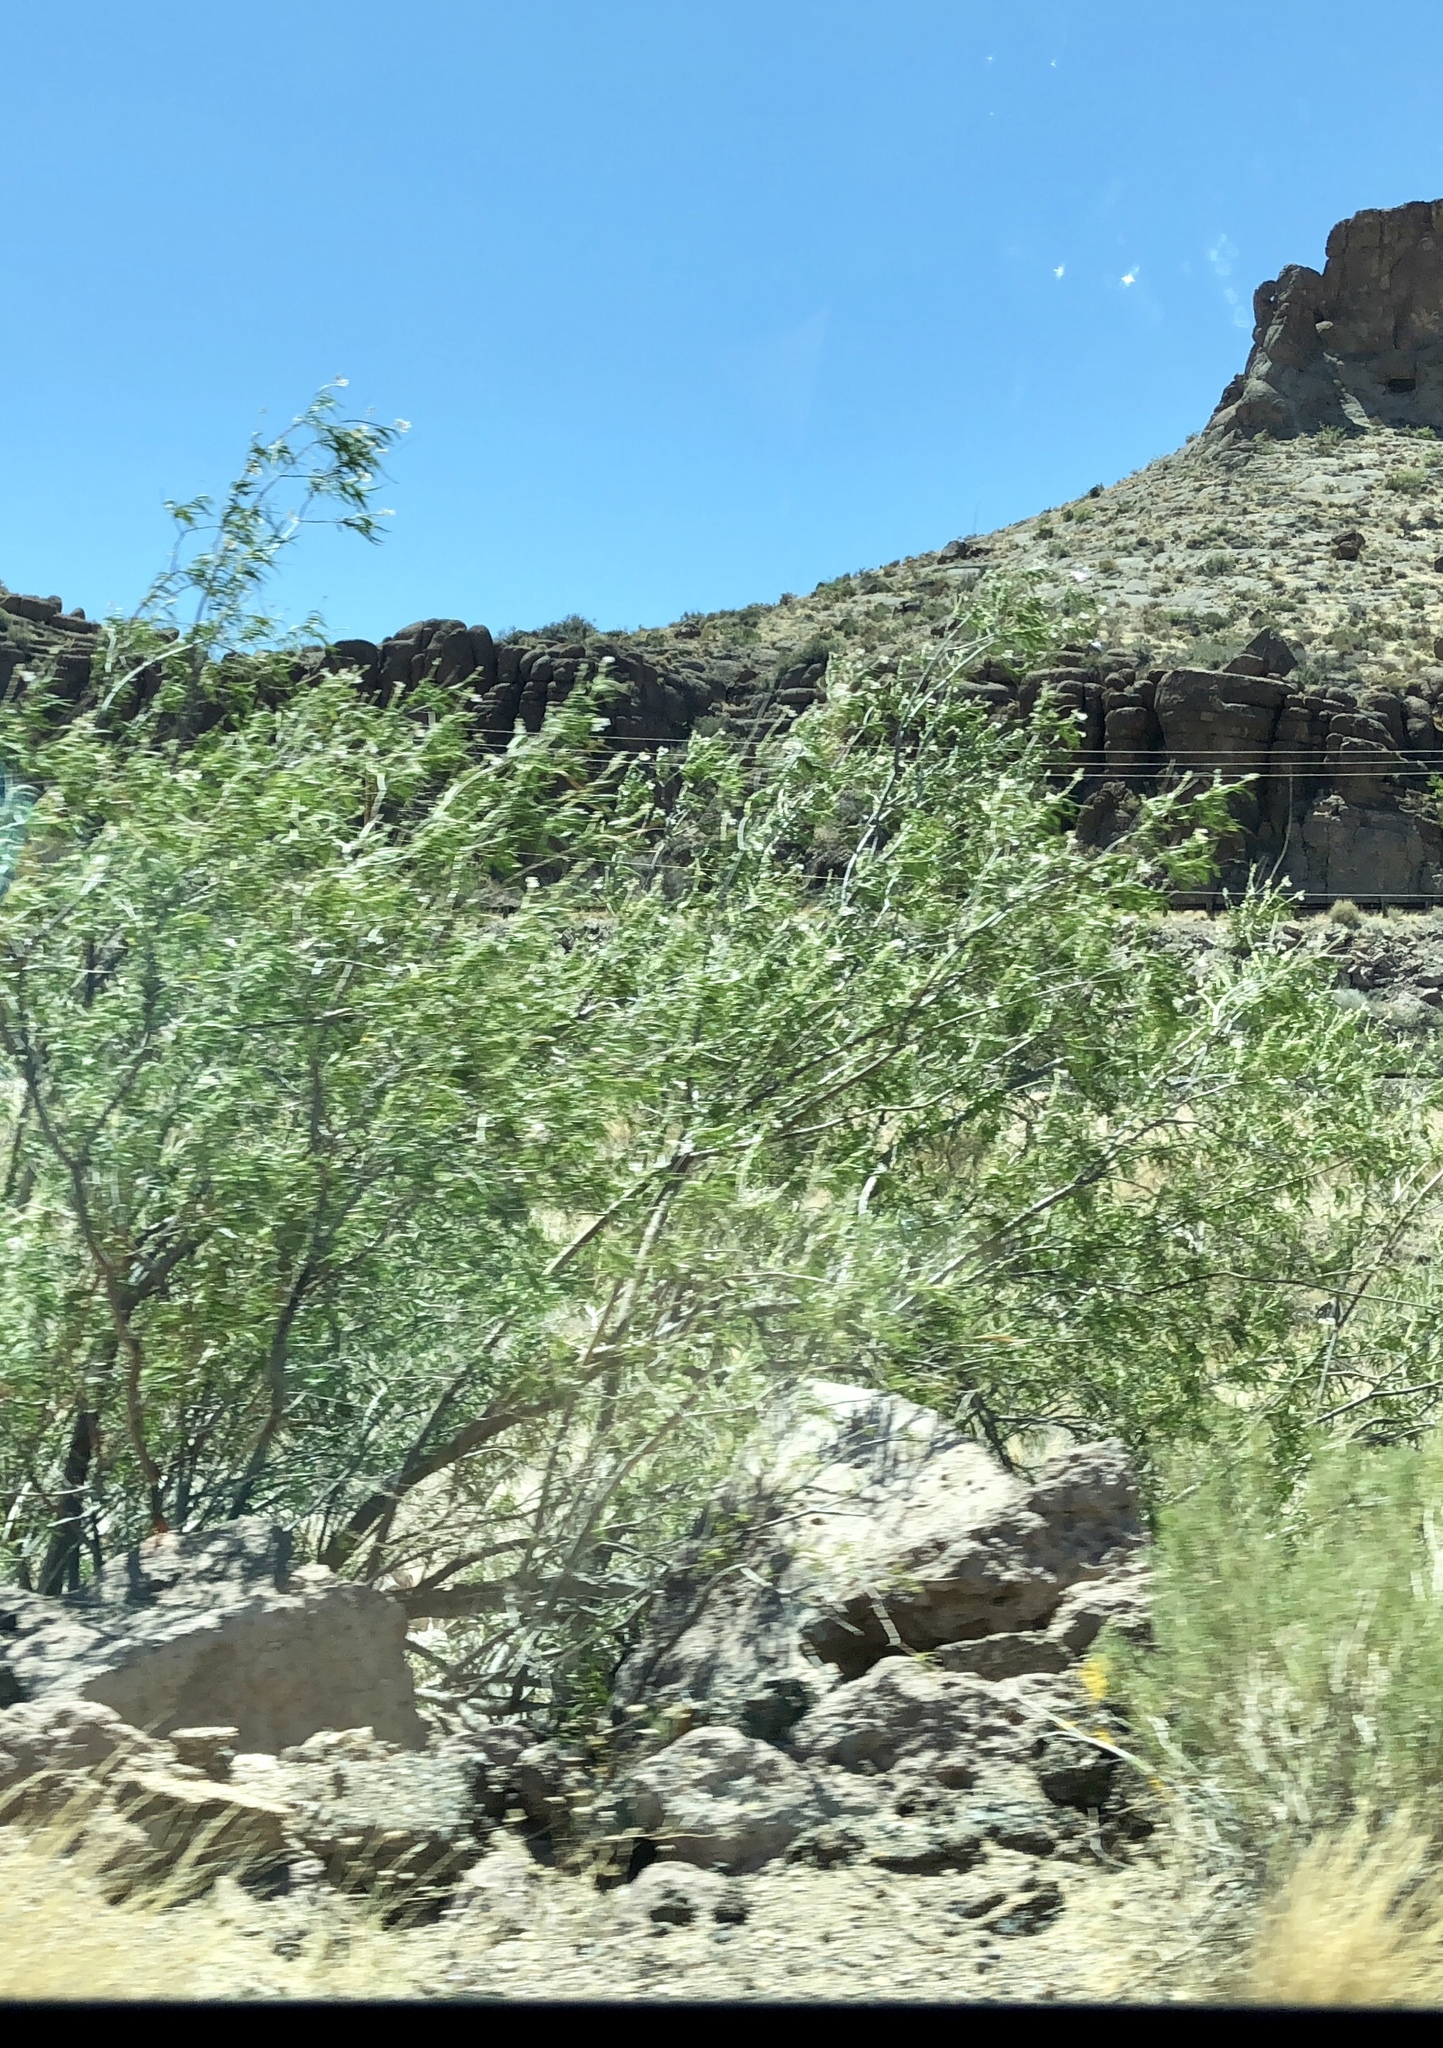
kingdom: Plantae
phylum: Tracheophyta
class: Magnoliopsida
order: Lamiales
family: Bignoniaceae
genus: Chilopsis
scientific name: Chilopsis linearis
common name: Desert-willow
